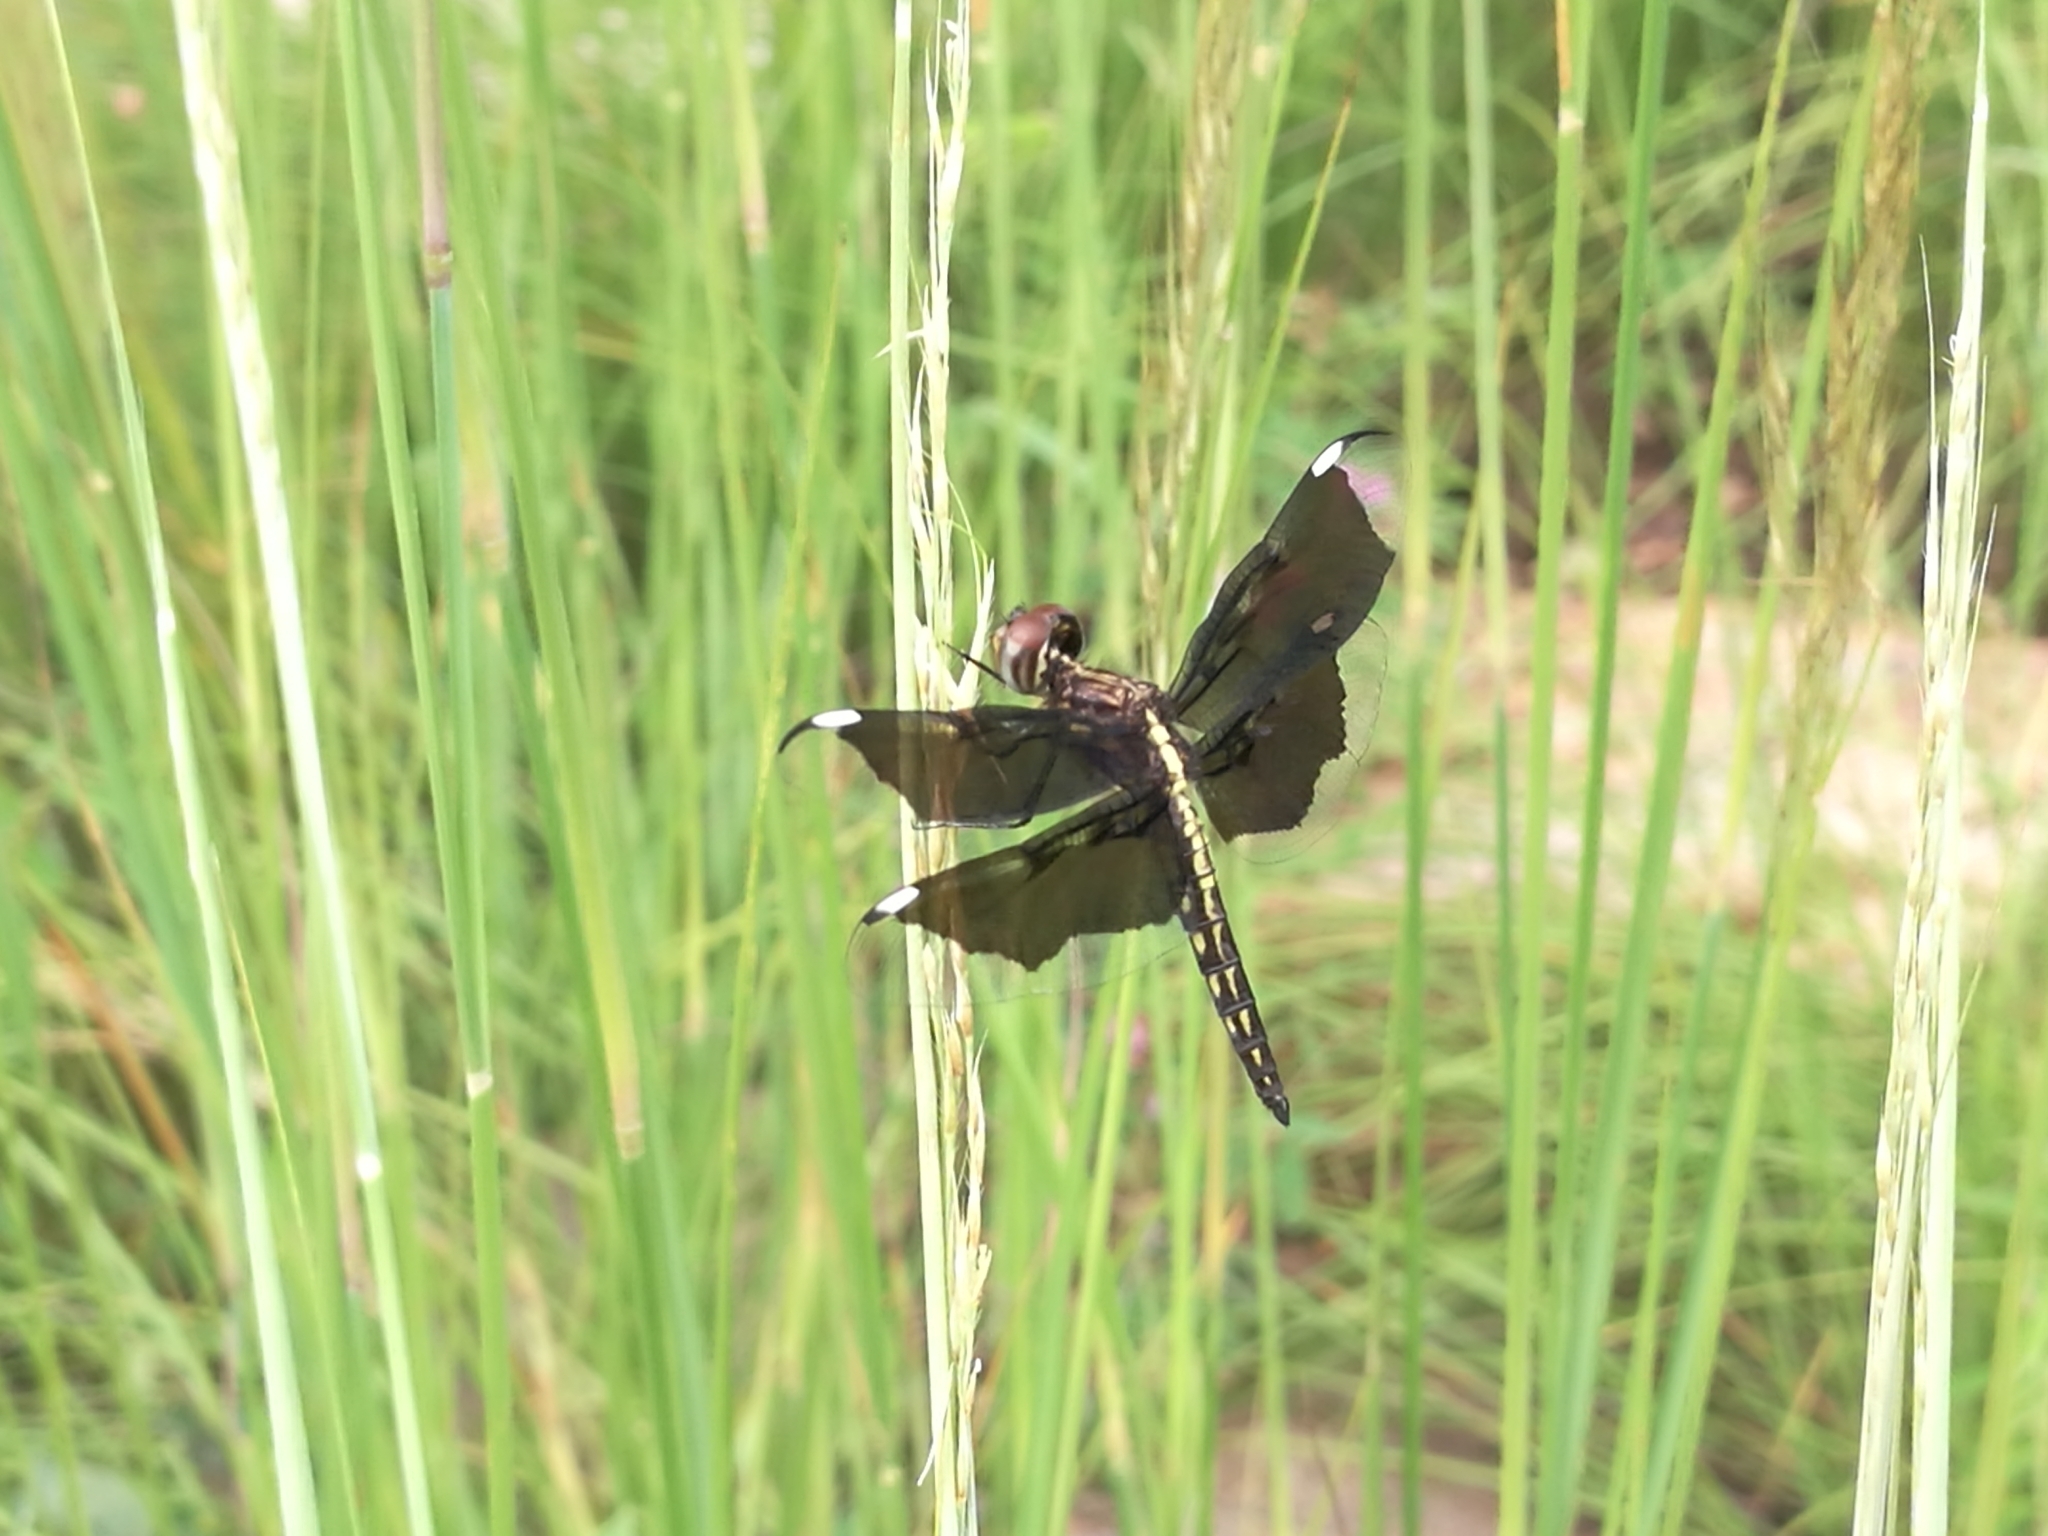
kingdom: Animalia
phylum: Arthropoda
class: Insecta
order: Odonata
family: Libellulidae
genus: Palpopleura
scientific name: Palpopleura lucia
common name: Lucia widow
